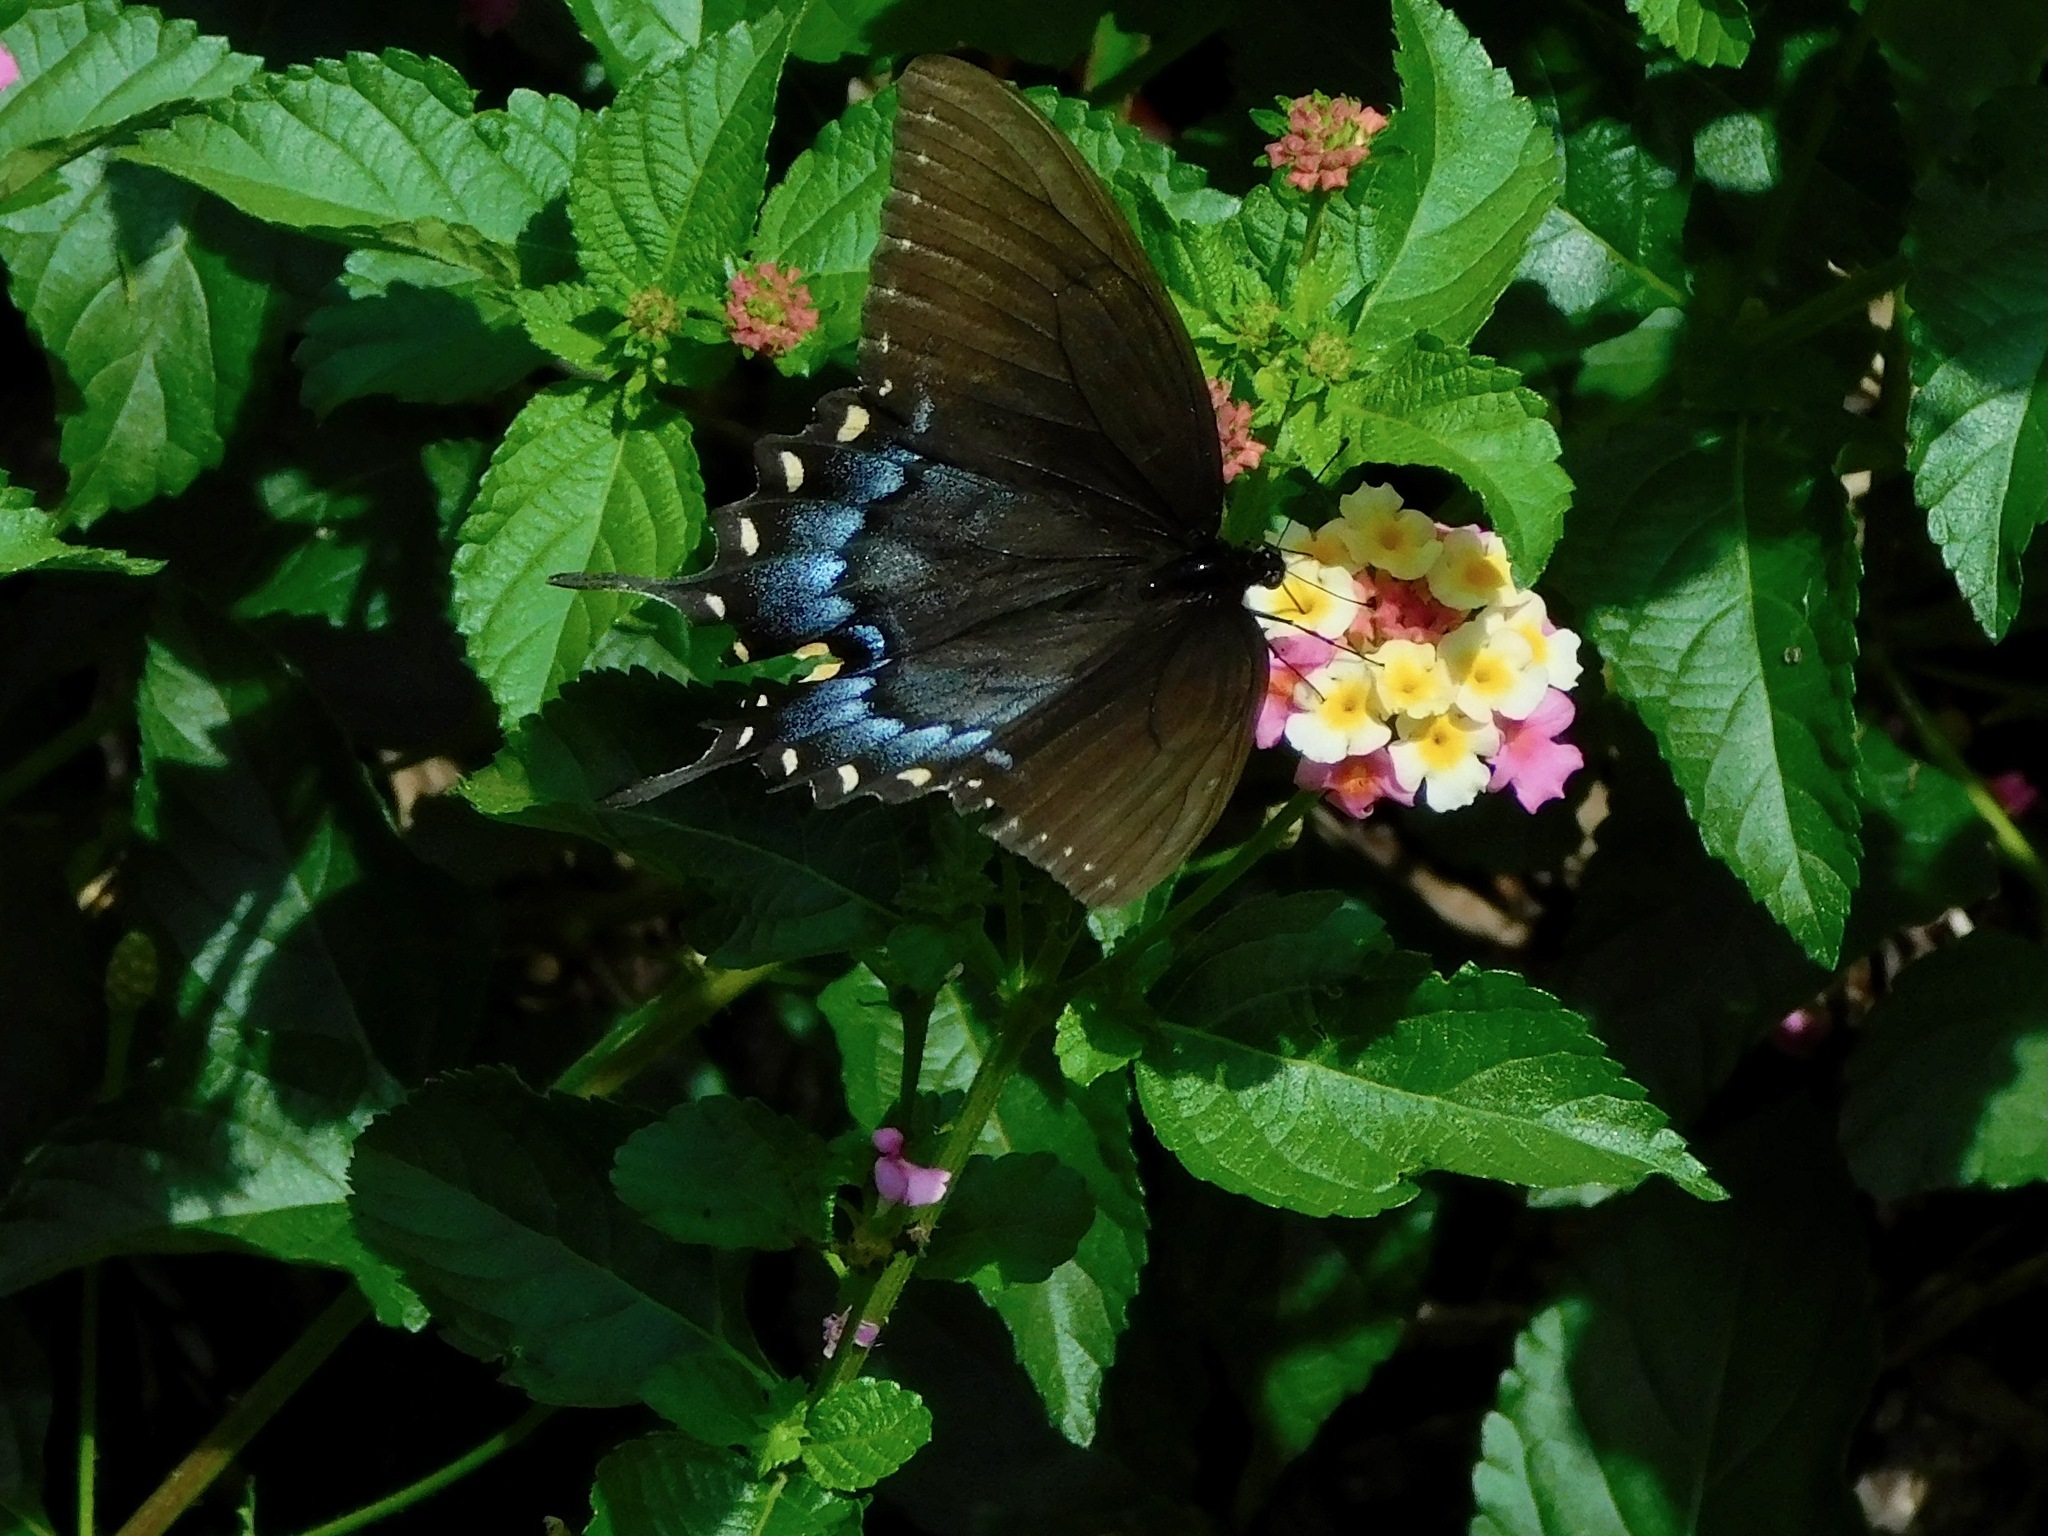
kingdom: Animalia
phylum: Arthropoda
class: Insecta
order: Lepidoptera
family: Papilionidae
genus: Papilio
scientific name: Papilio glaucus
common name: Tiger swallowtail
